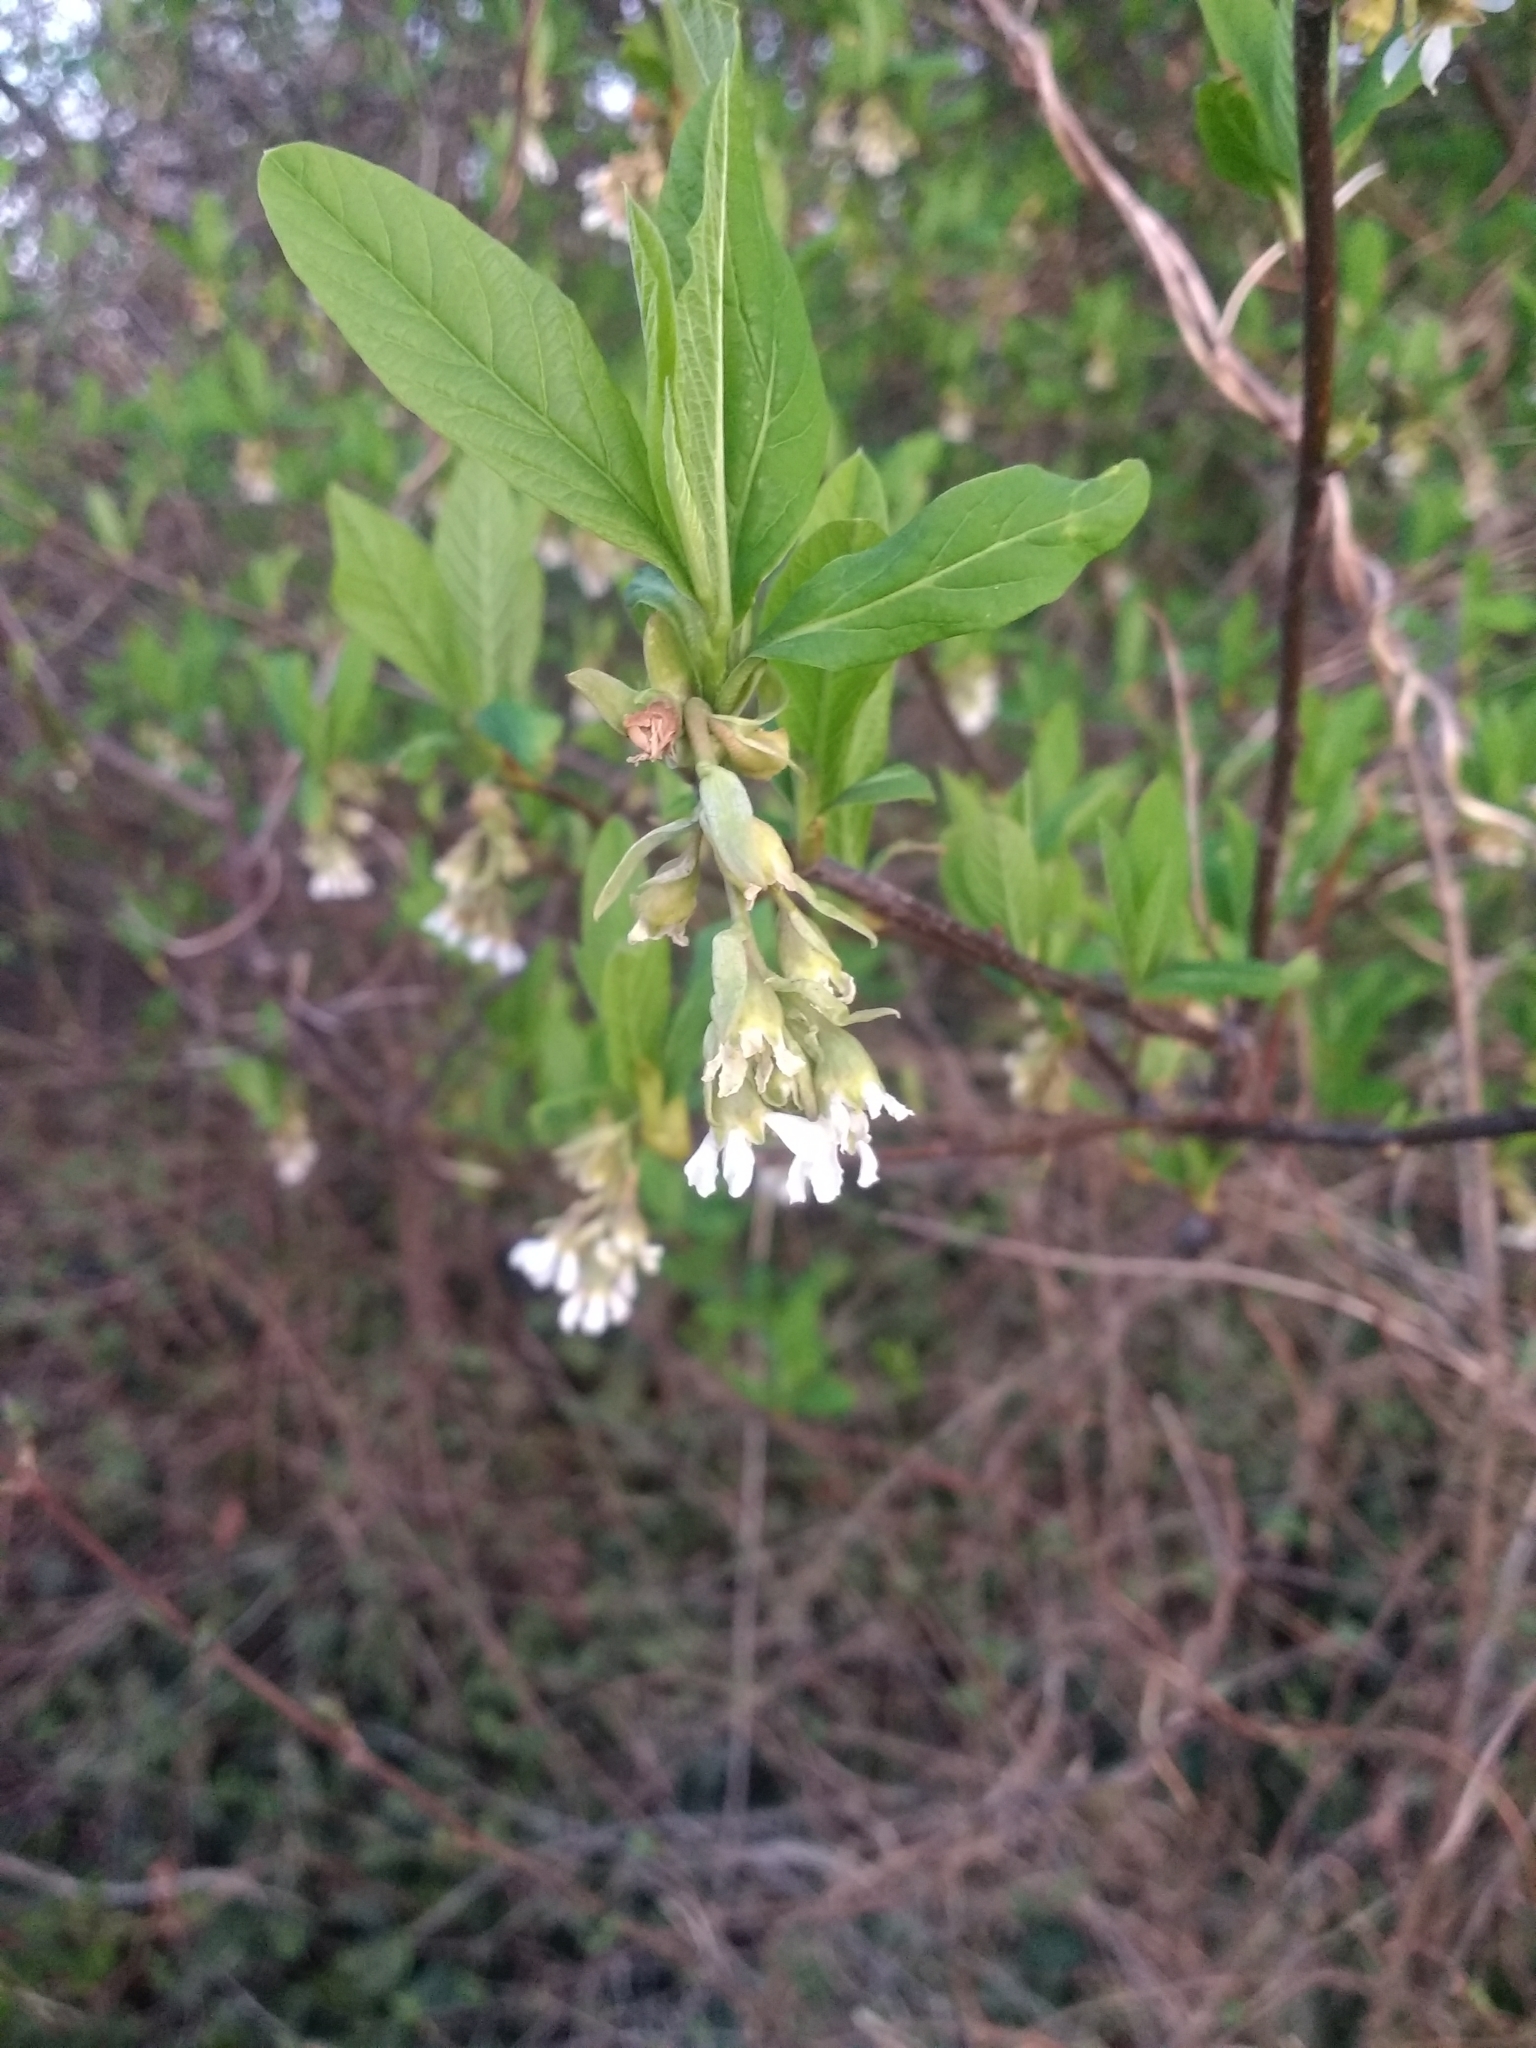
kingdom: Plantae
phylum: Tracheophyta
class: Magnoliopsida
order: Rosales
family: Rosaceae
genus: Oemleria
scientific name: Oemleria cerasiformis
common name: Osoberry
